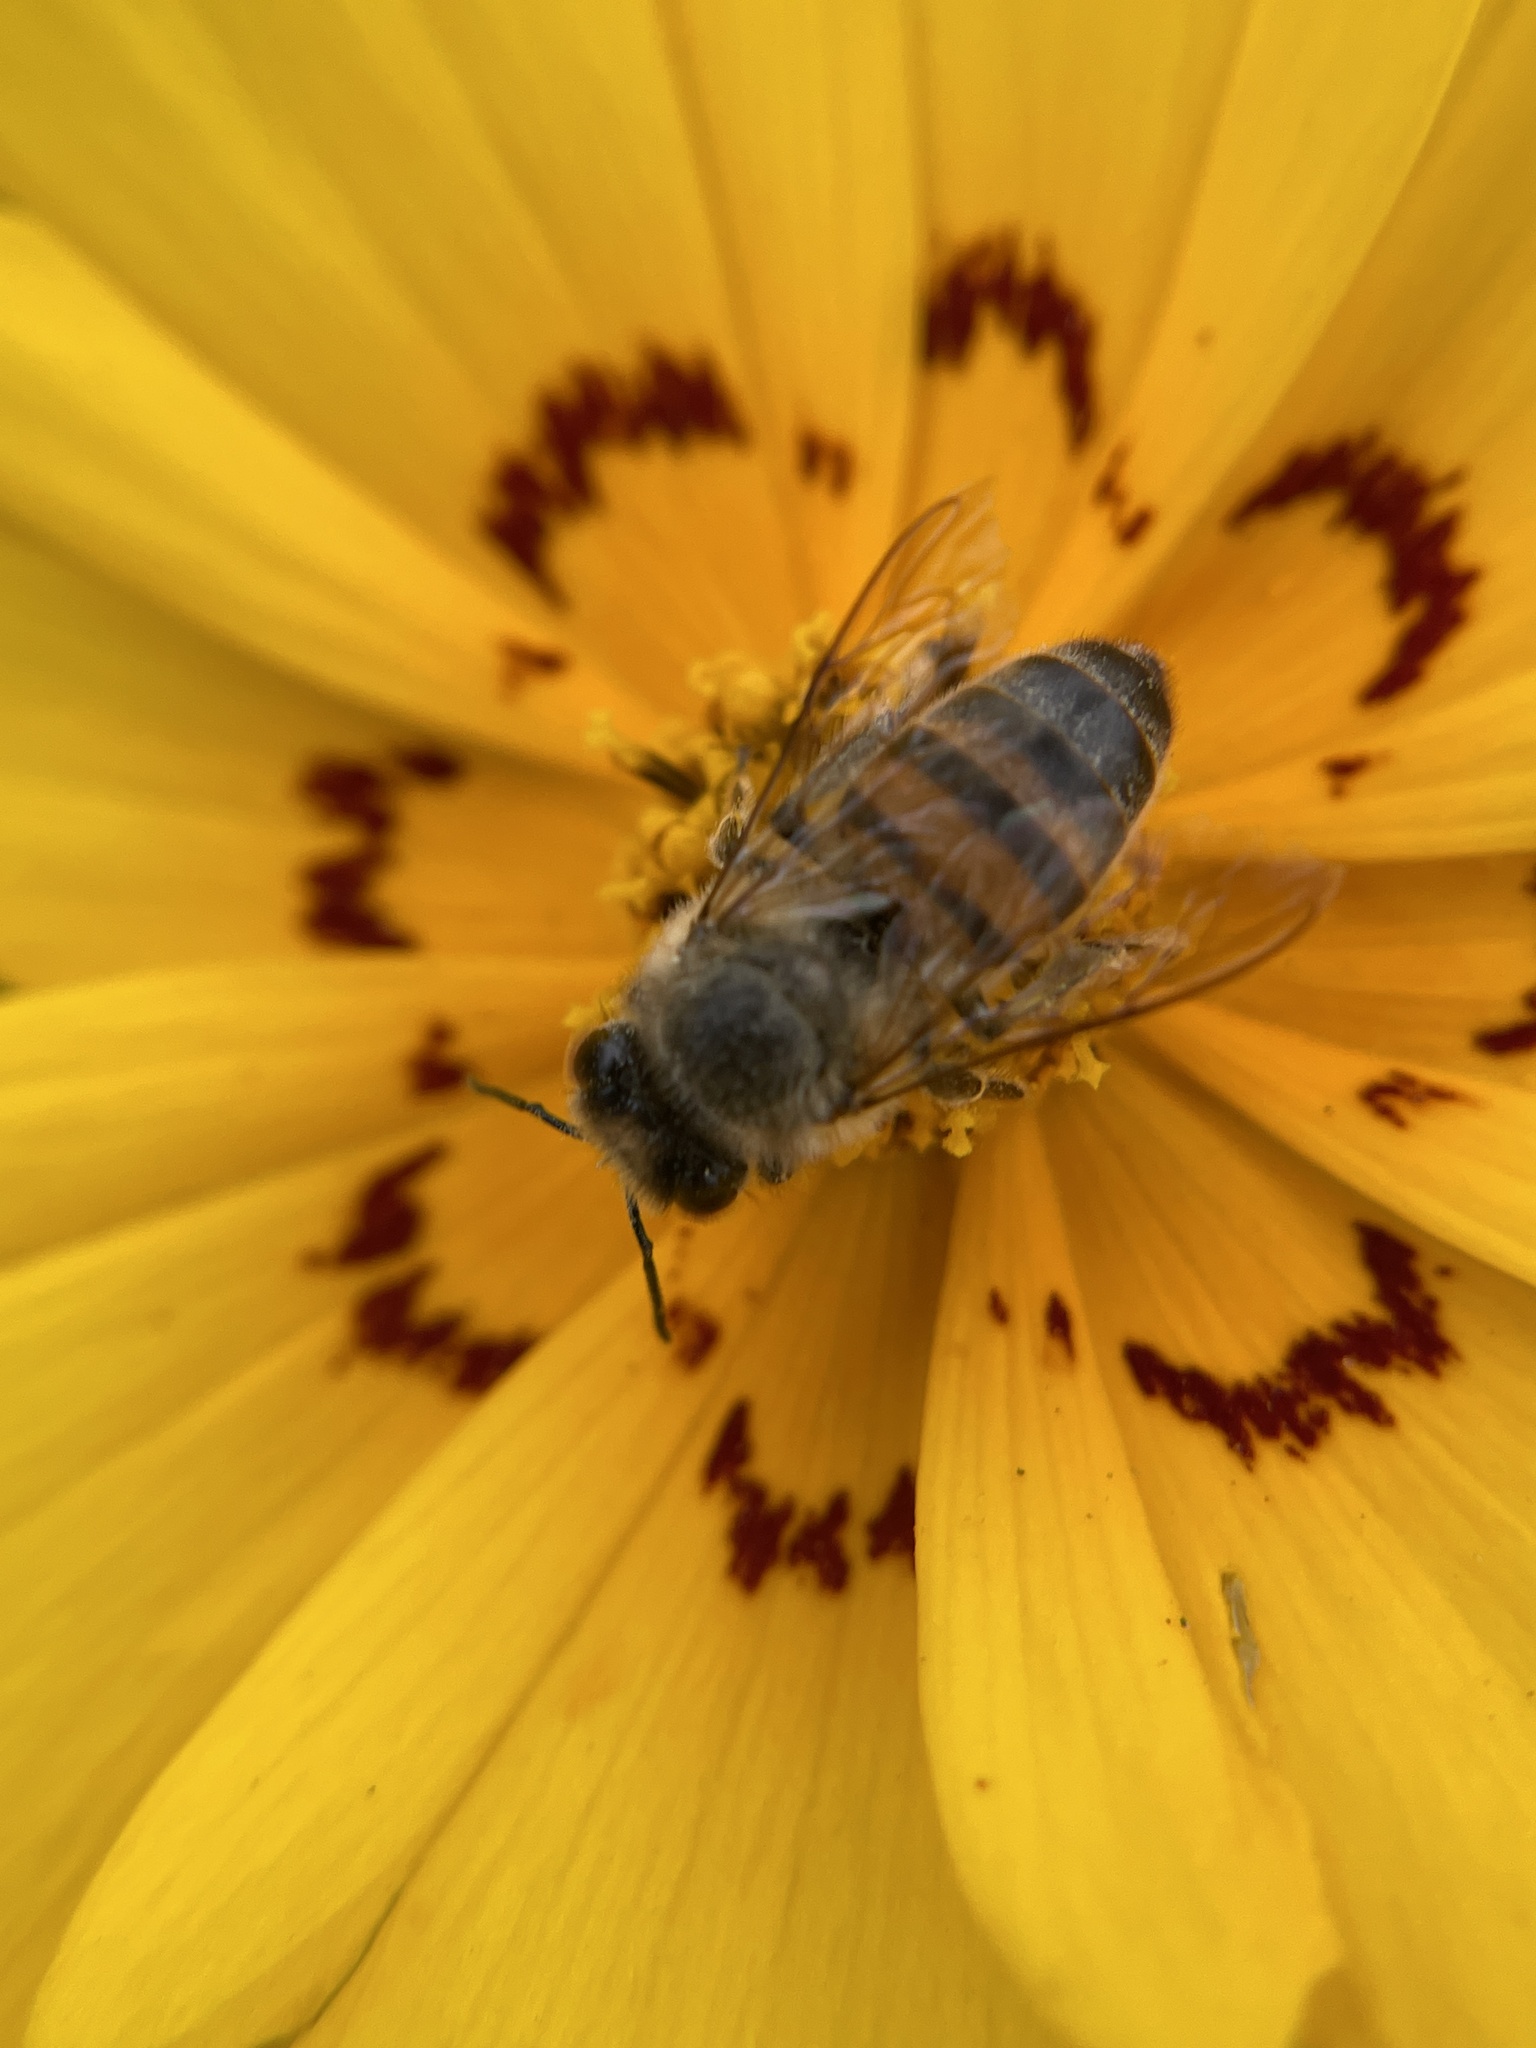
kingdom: Animalia
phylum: Arthropoda
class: Insecta
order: Hymenoptera
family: Apidae
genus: Apis
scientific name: Apis mellifera
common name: Honey bee
